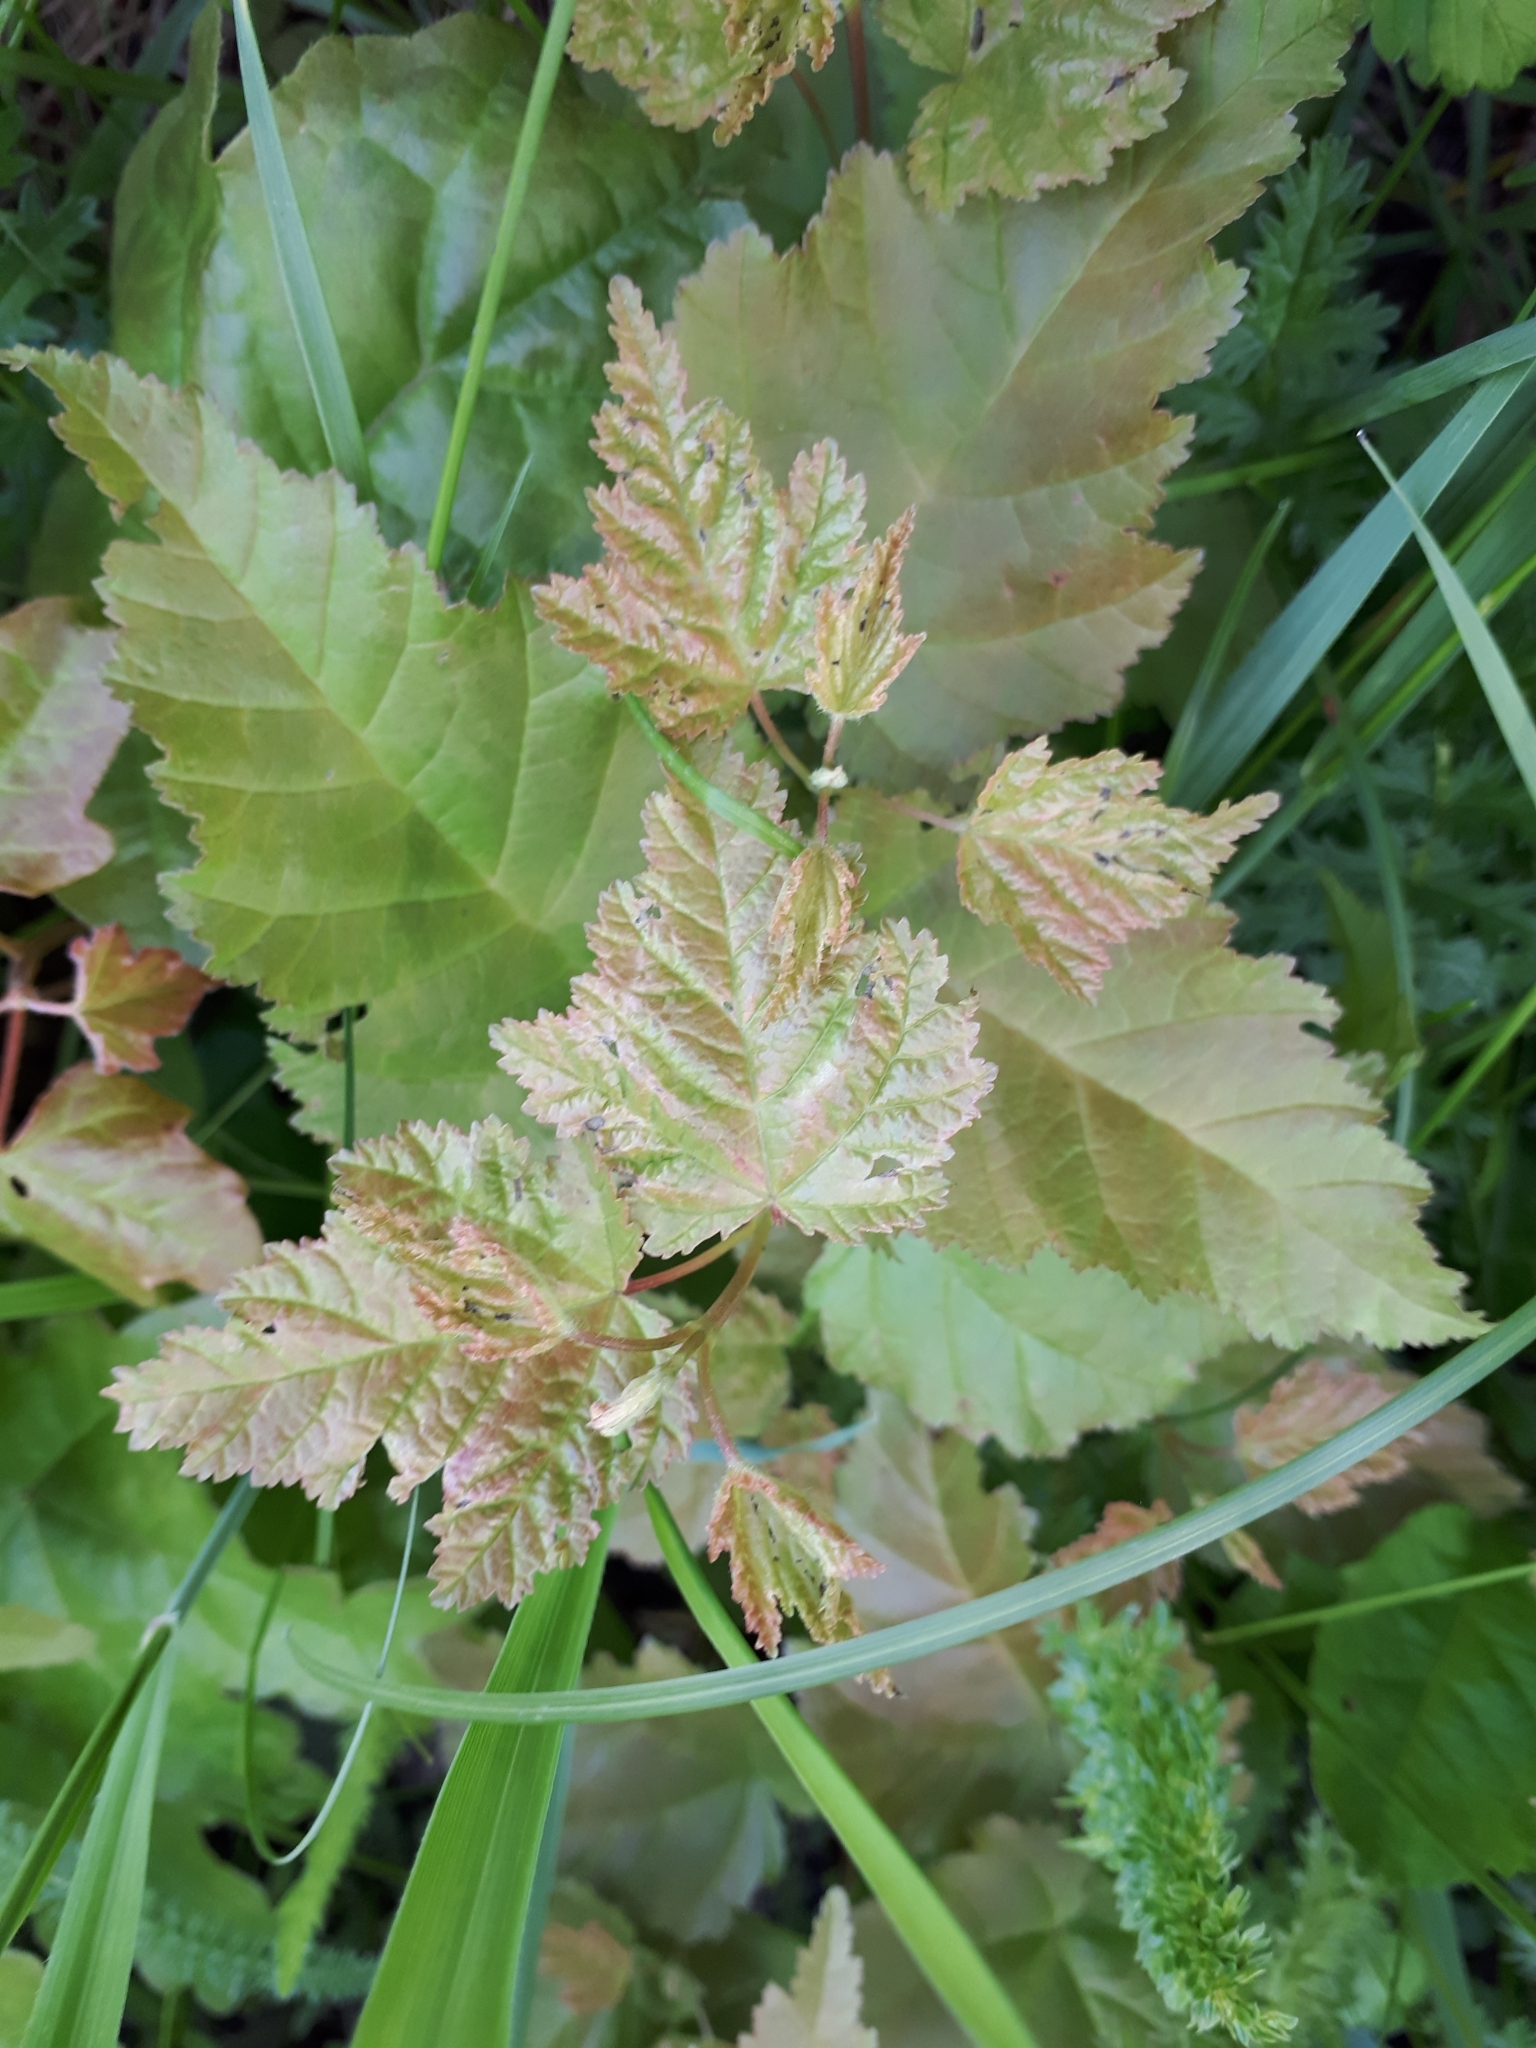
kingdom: Plantae
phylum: Tracheophyta
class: Magnoliopsida
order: Sapindales
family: Sapindaceae
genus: Acer
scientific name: Acer campestre
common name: Field maple
